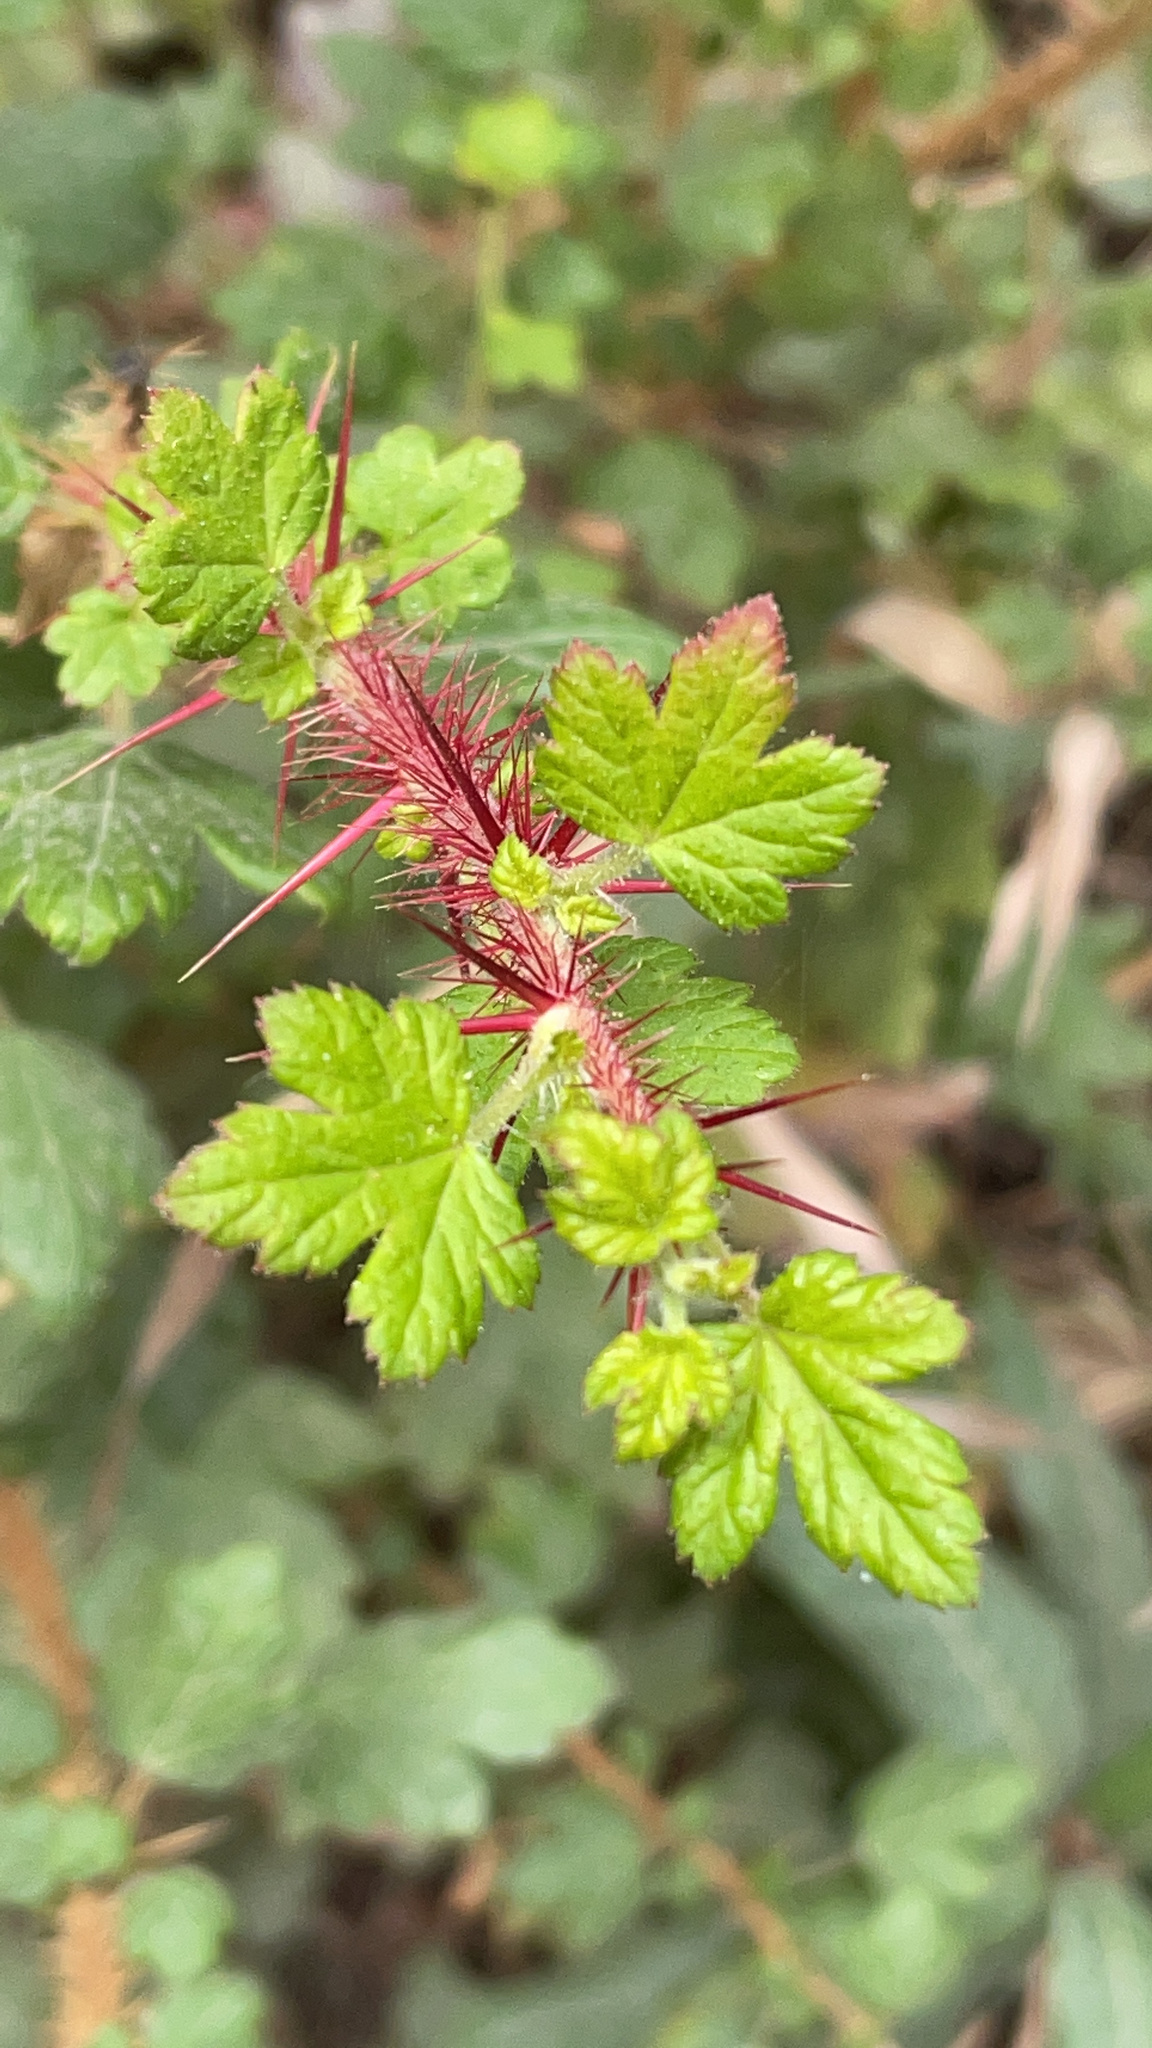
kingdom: Plantae
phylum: Tracheophyta
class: Magnoliopsida
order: Saxifragales
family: Grossulariaceae
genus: Ribes
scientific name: Ribes speciosum
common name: Fuchsia-flower gooseberry
